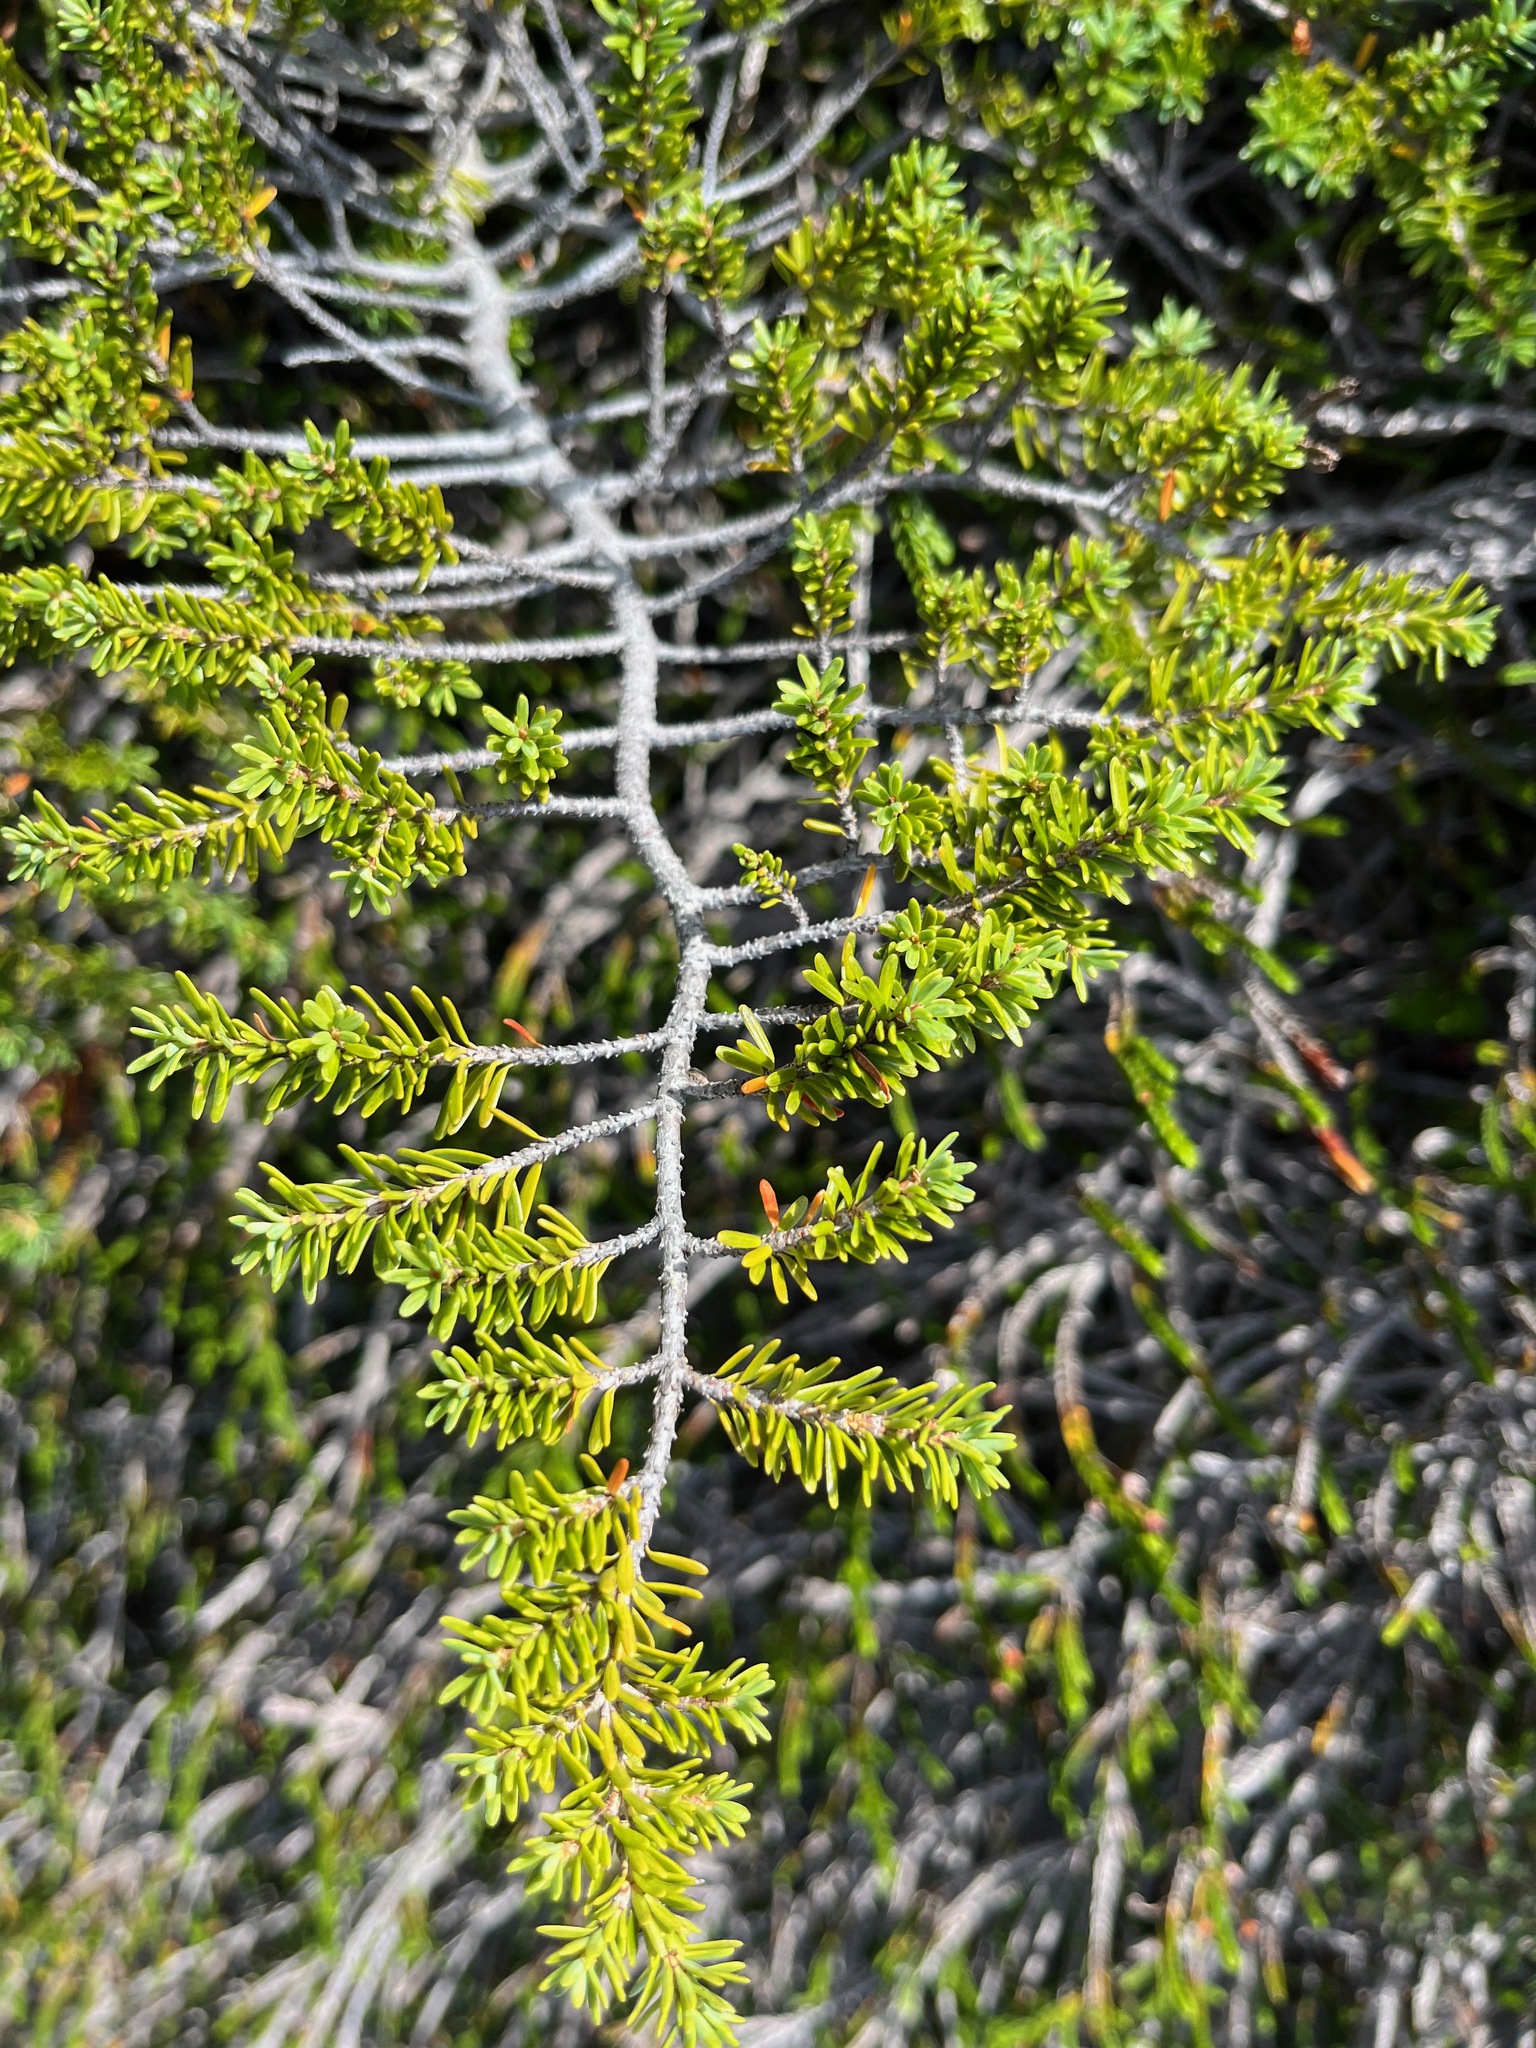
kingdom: Plantae
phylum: Tracheophyta
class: Pinopsida
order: Pinales
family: Pinaceae
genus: Tsuga
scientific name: Tsuga mertensiana
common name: Mountain hemlock
